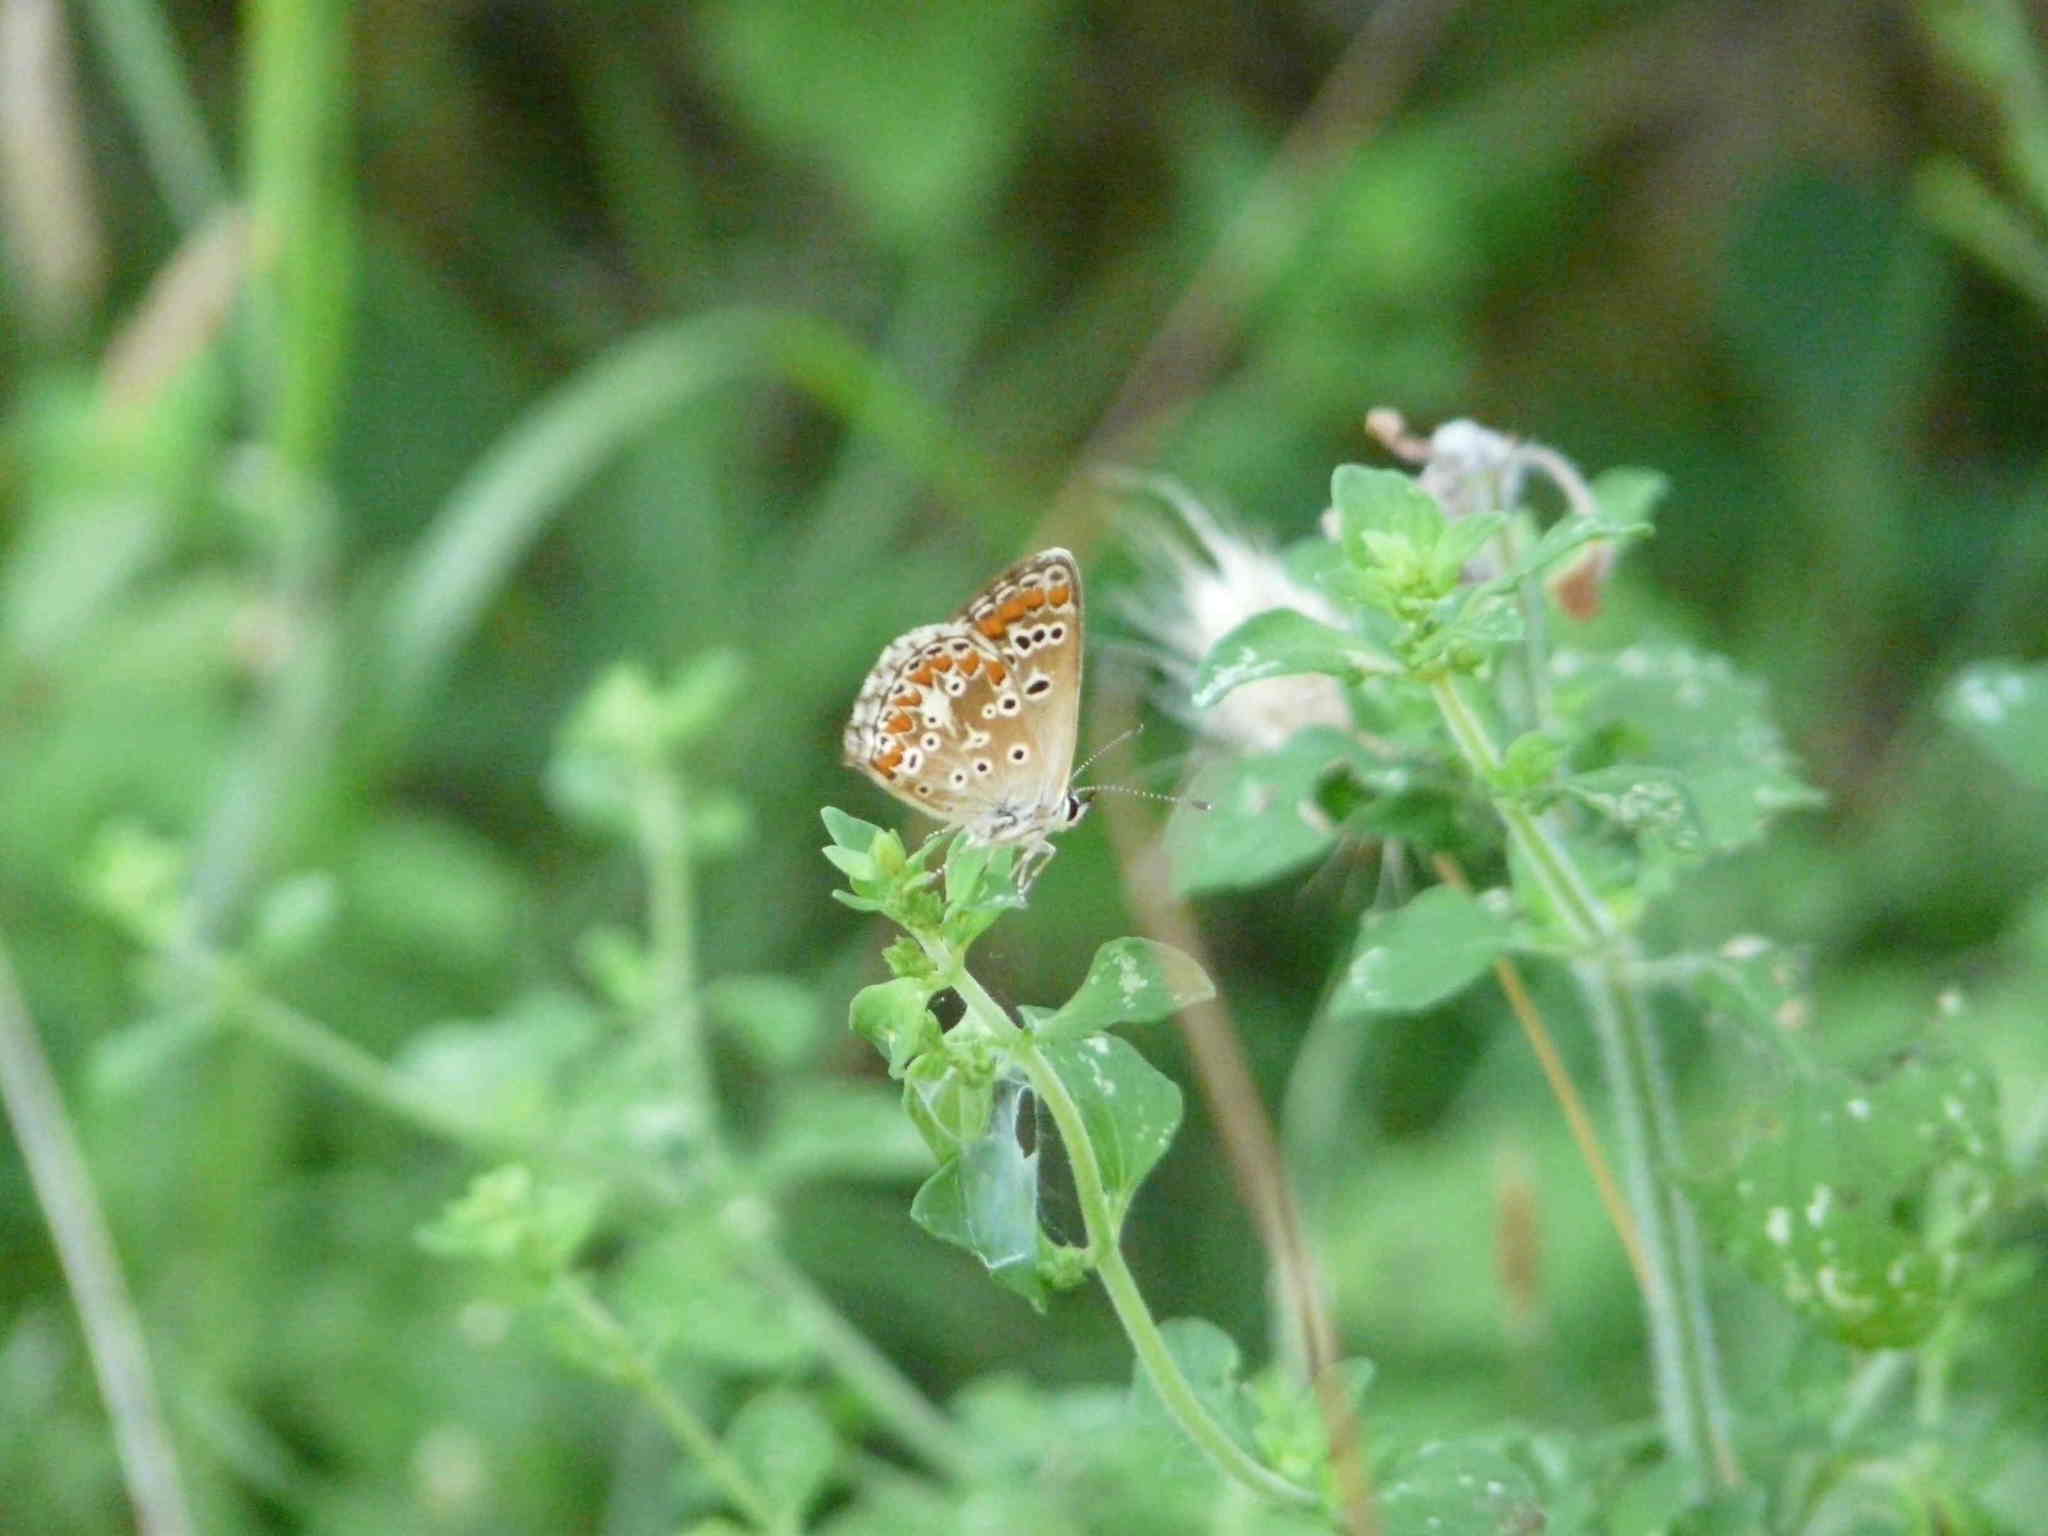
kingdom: Animalia
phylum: Arthropoda
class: Insecta
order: Lepidoptera
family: Lycaenidae
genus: Aricia
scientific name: Aricia agestis
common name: Brown argus
